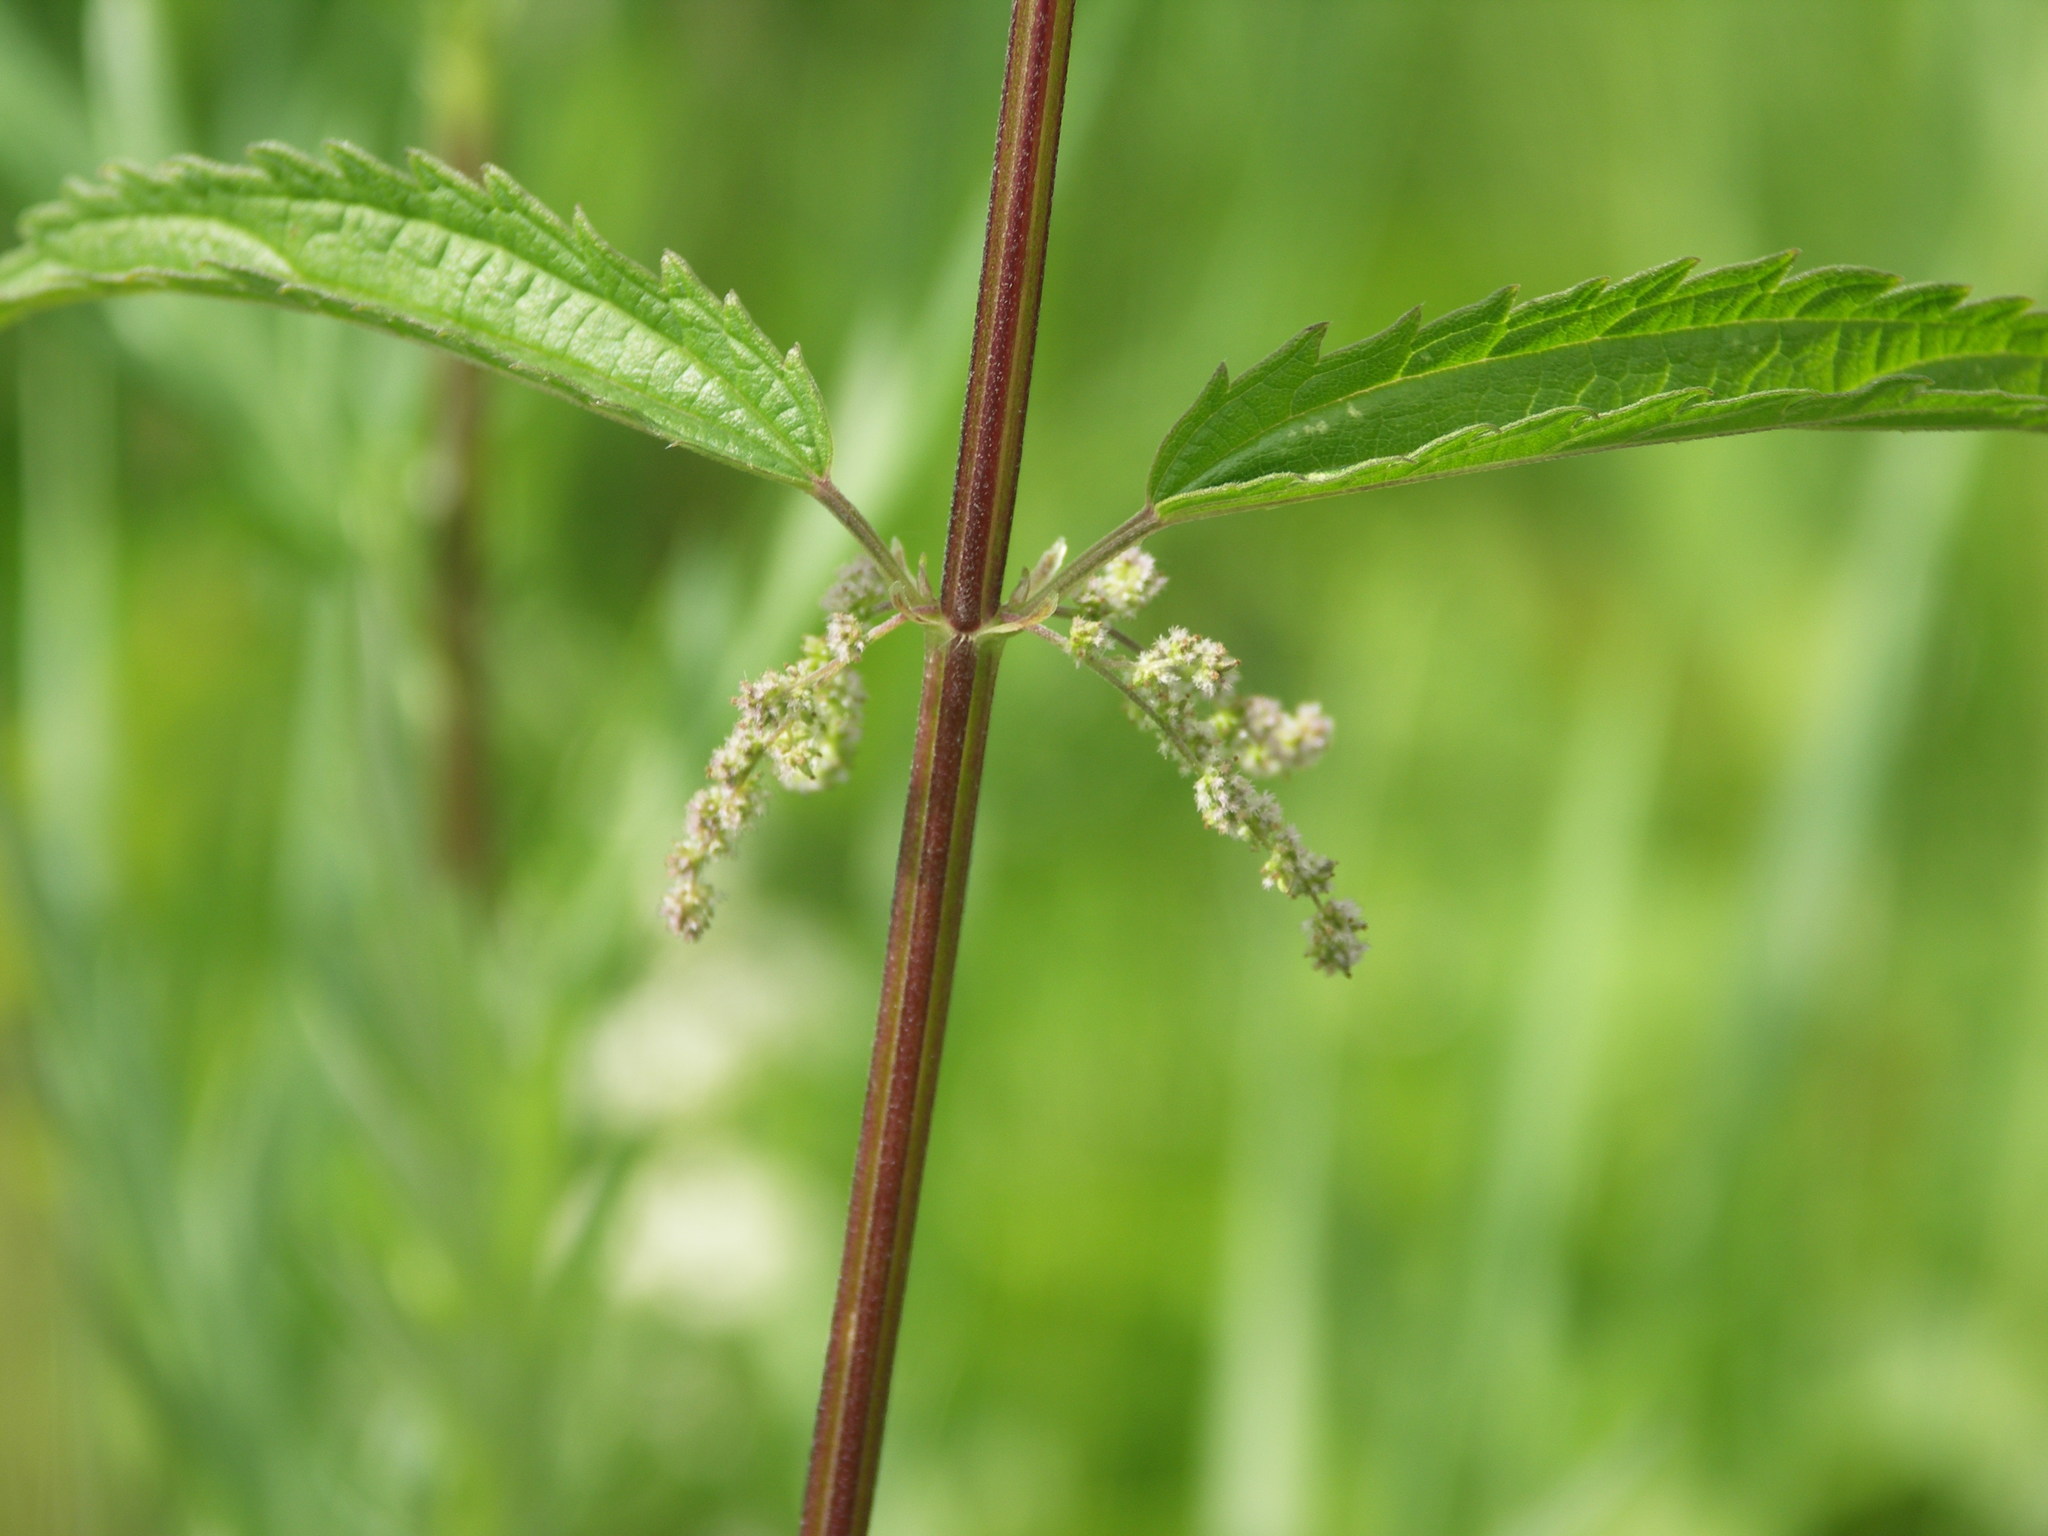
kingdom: Plantae
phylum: Tracheophyta
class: Magnoliopsida
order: Rosales
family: Urticaceae
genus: Urtica
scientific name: Urtica dioica
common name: Common nettle
